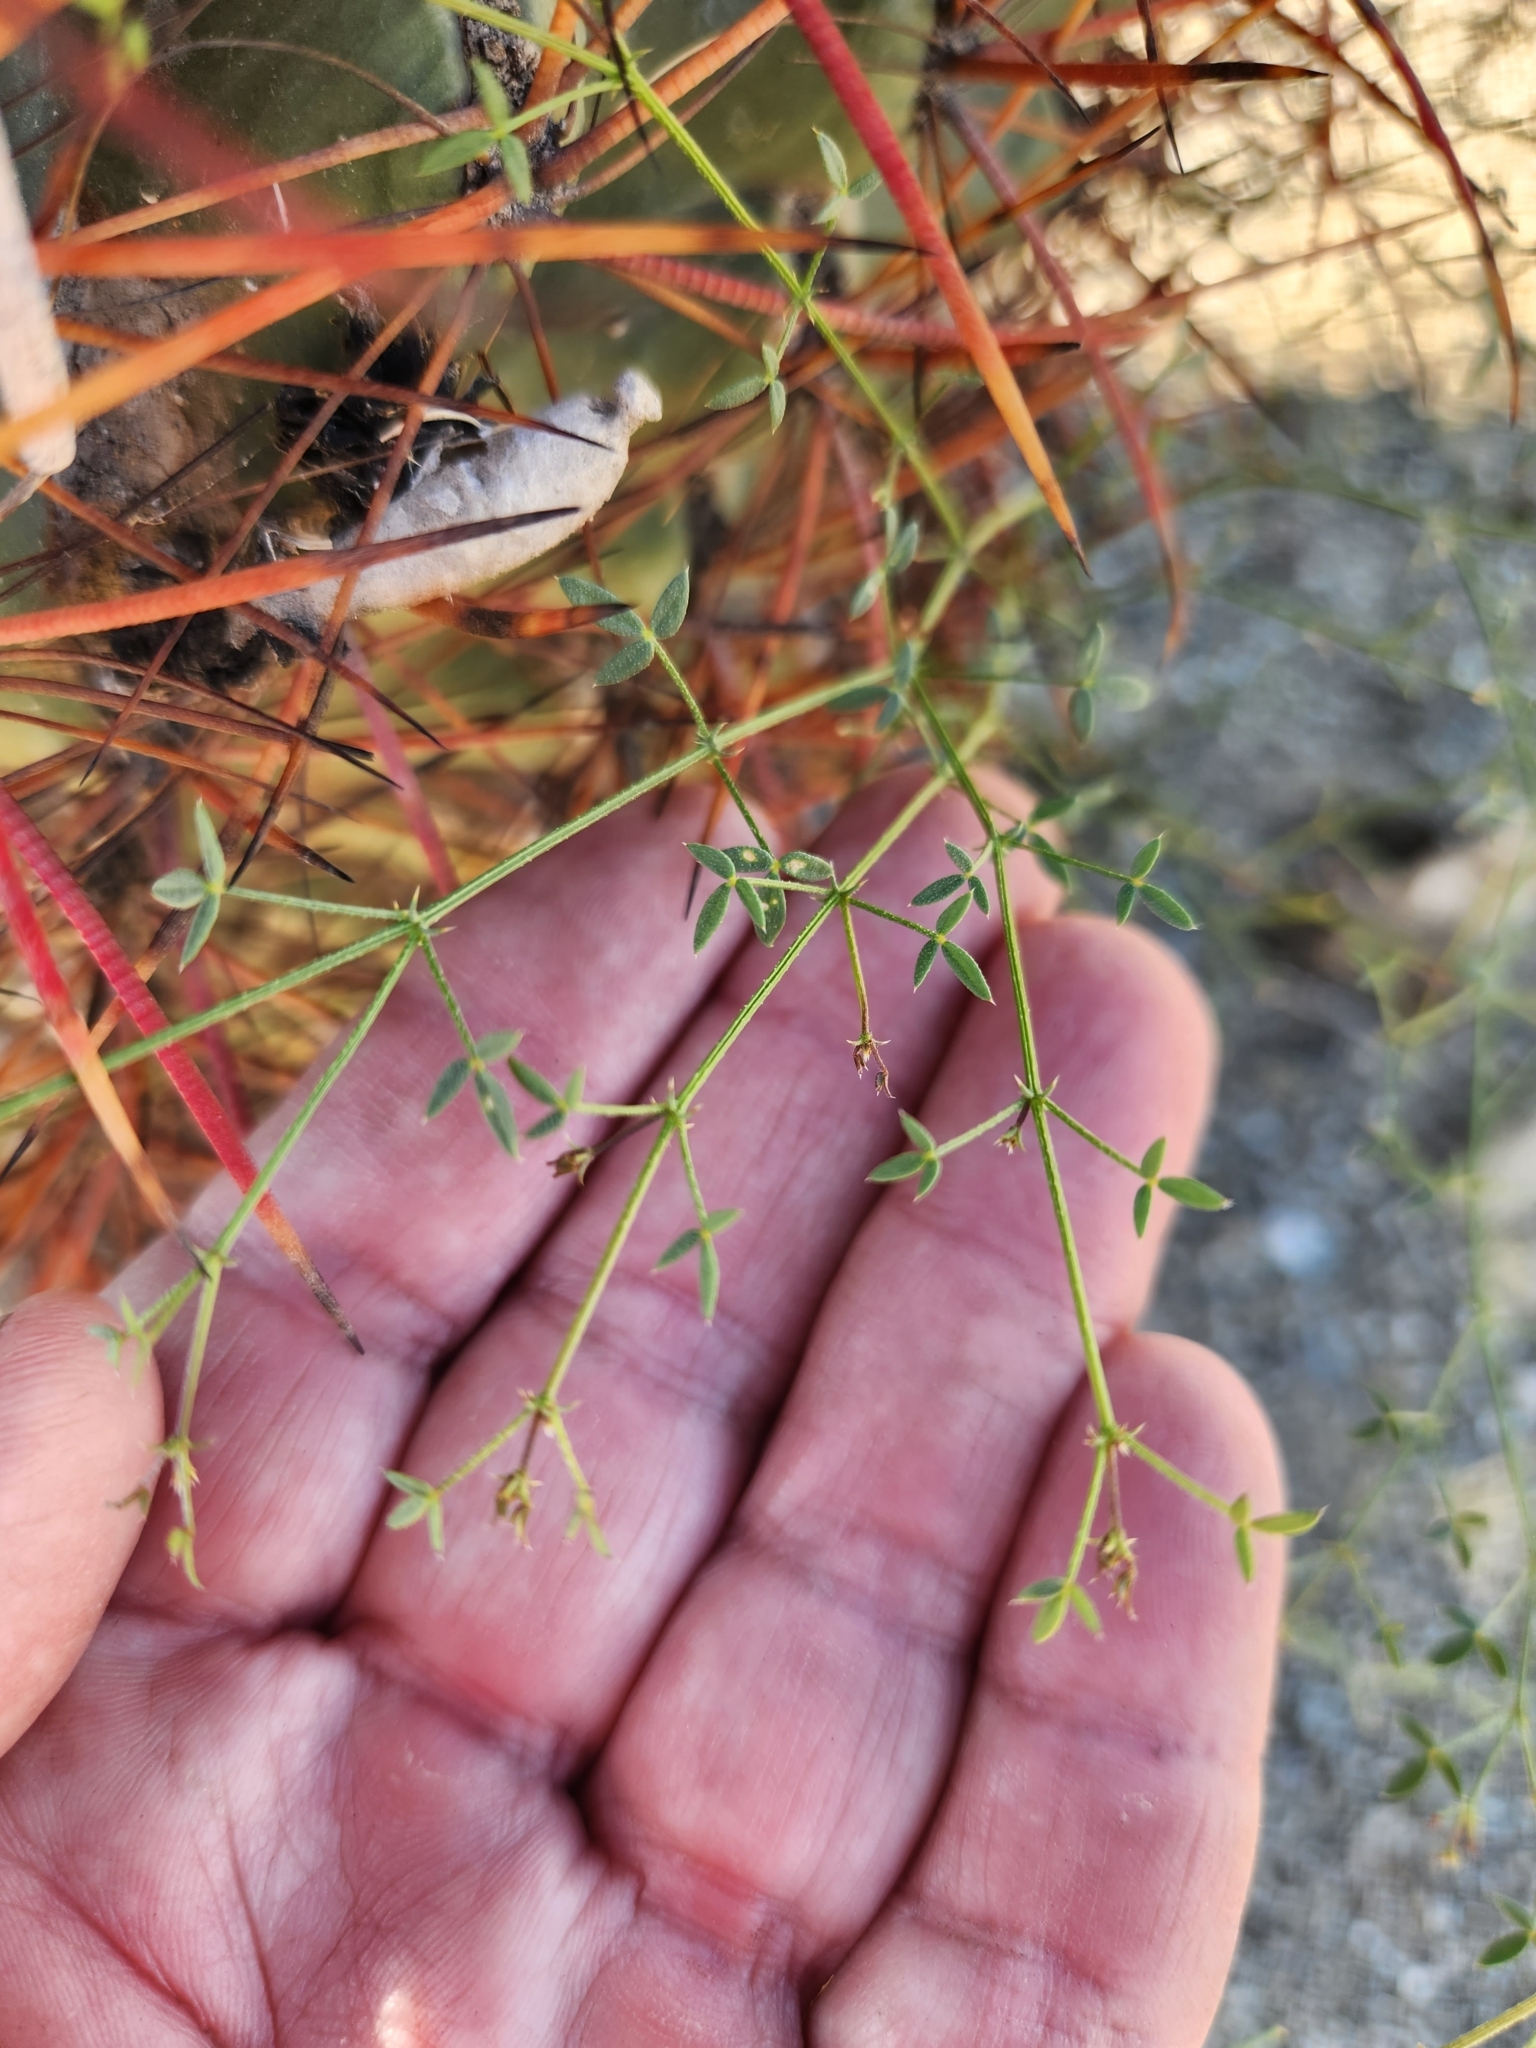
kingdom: Plantae
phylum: Tracheophyta
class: Magnoliopsida
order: Zygophyllales
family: Zygophyllaceae
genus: Fagonia
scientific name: Fagonia laevis
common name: California fagonbush
